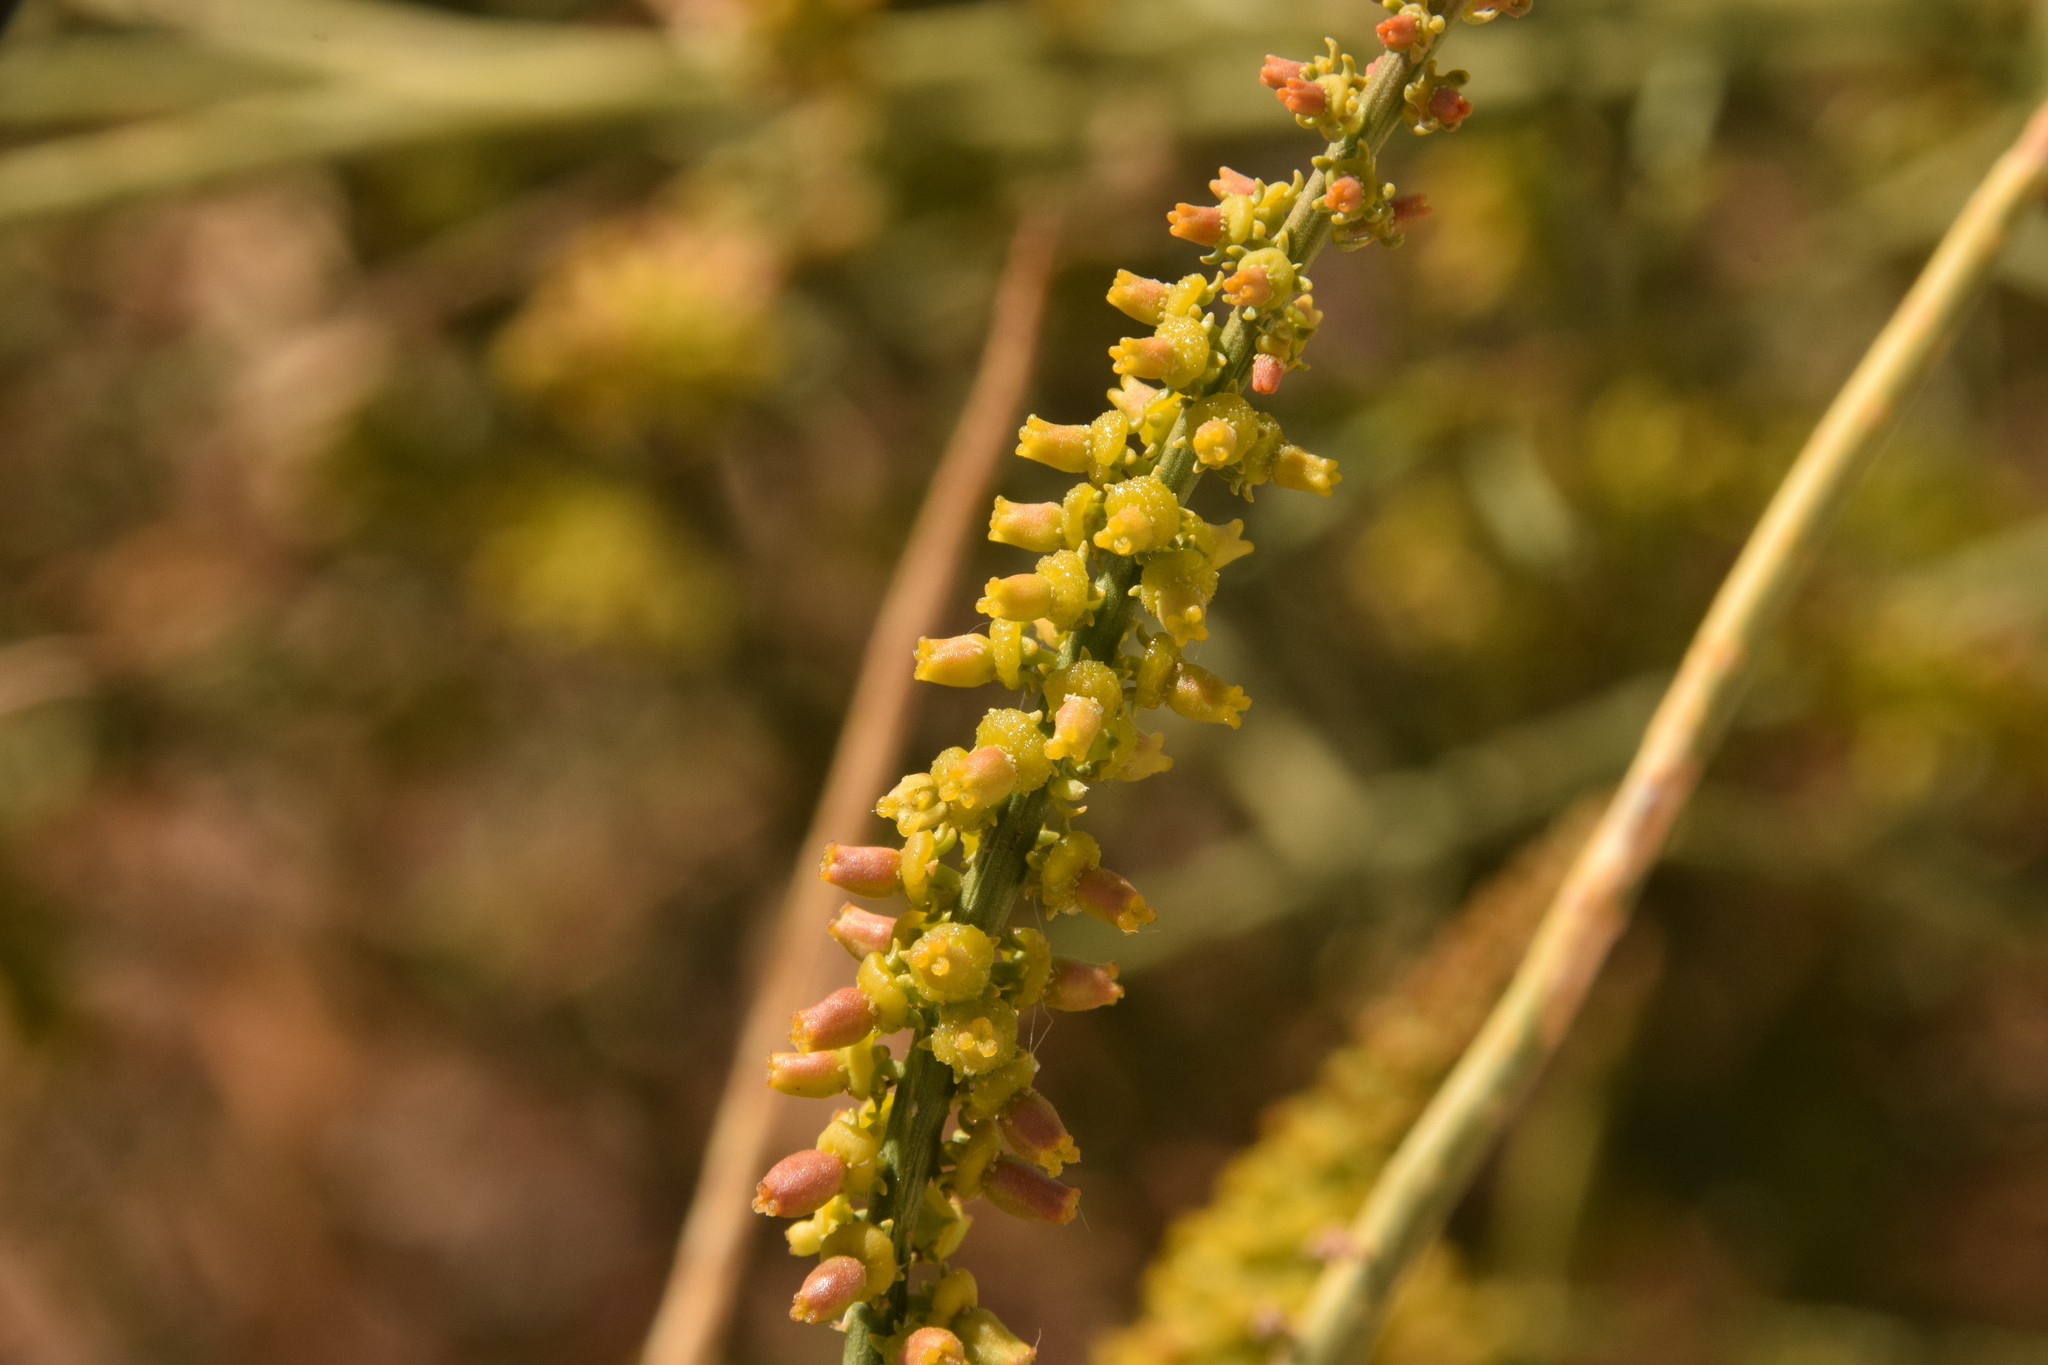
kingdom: Plantae
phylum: Tracheophyta
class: Magnoliopsida
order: Brassicales
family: Resedaceae
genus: Ochradenus
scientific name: Ochradenus baccatus
